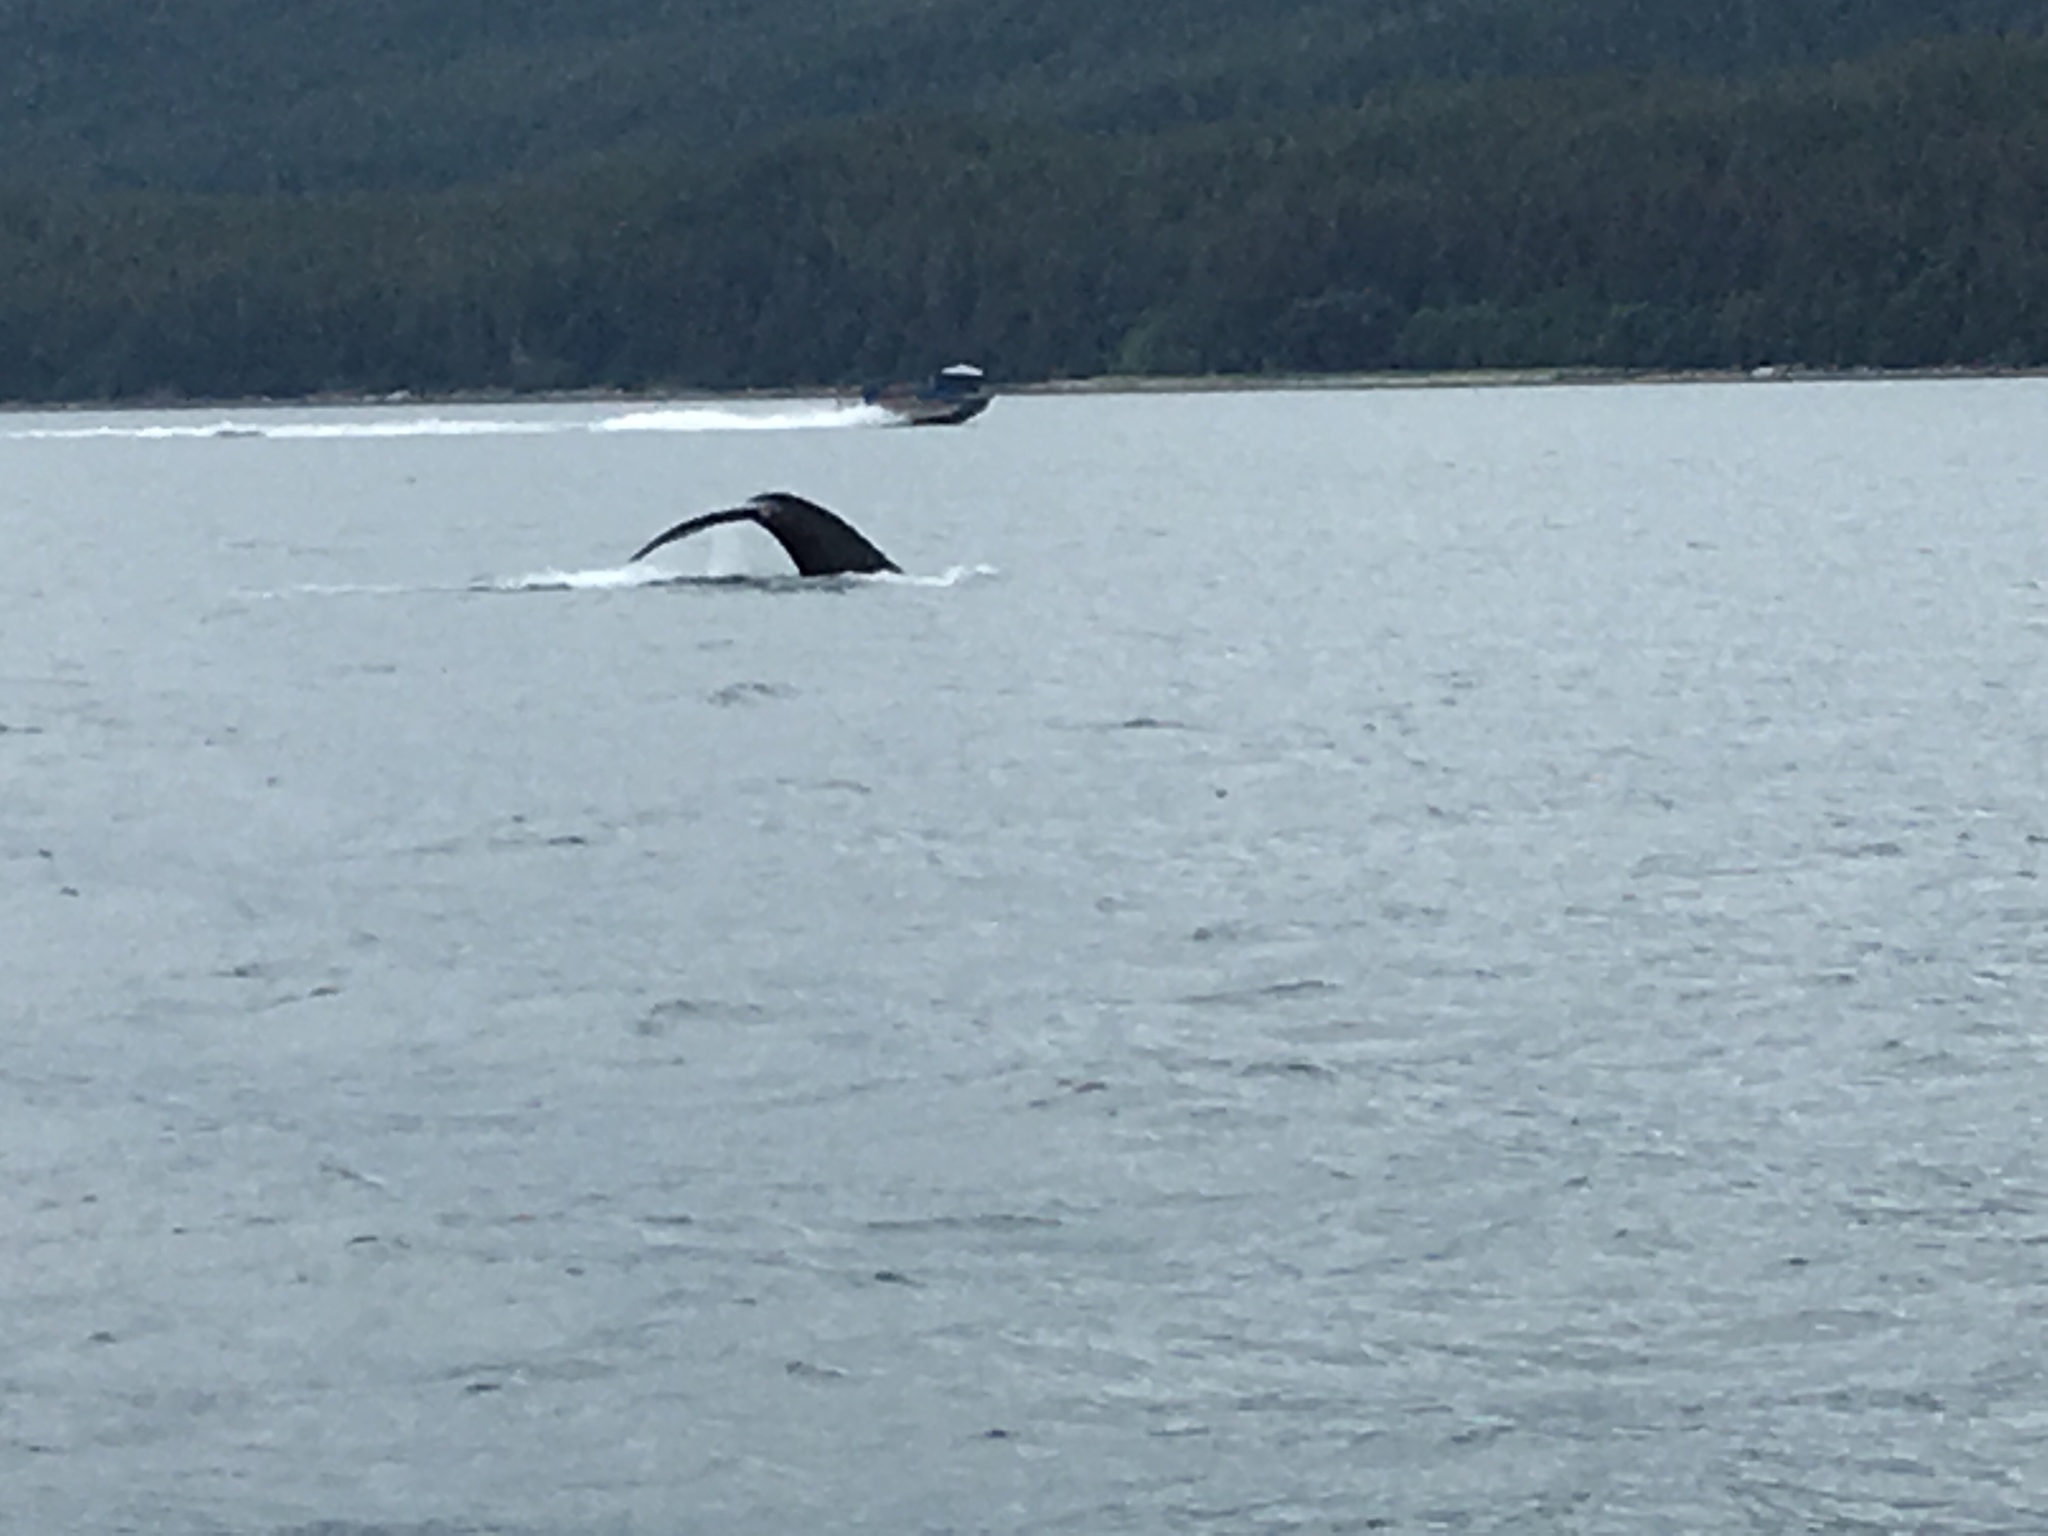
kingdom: Animalia
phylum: Chordata
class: Mammalia
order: Cetacea
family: Balaenopteridae
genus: Megaptera
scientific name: Megaptera novaeangliae
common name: Humpback whale
